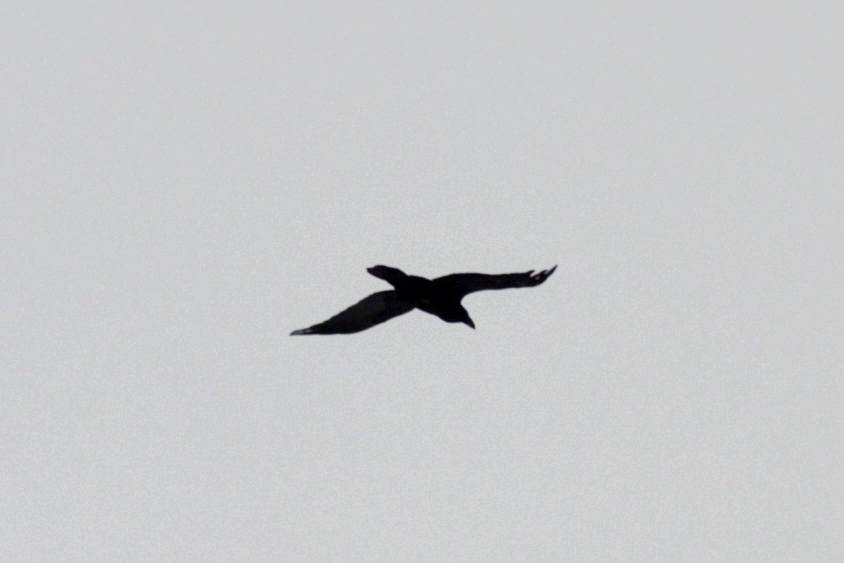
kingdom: Animalia
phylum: Chordata
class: Aves
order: Passeriformes
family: Corvidae
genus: Corvus
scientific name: Corvus corax
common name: Common raven
